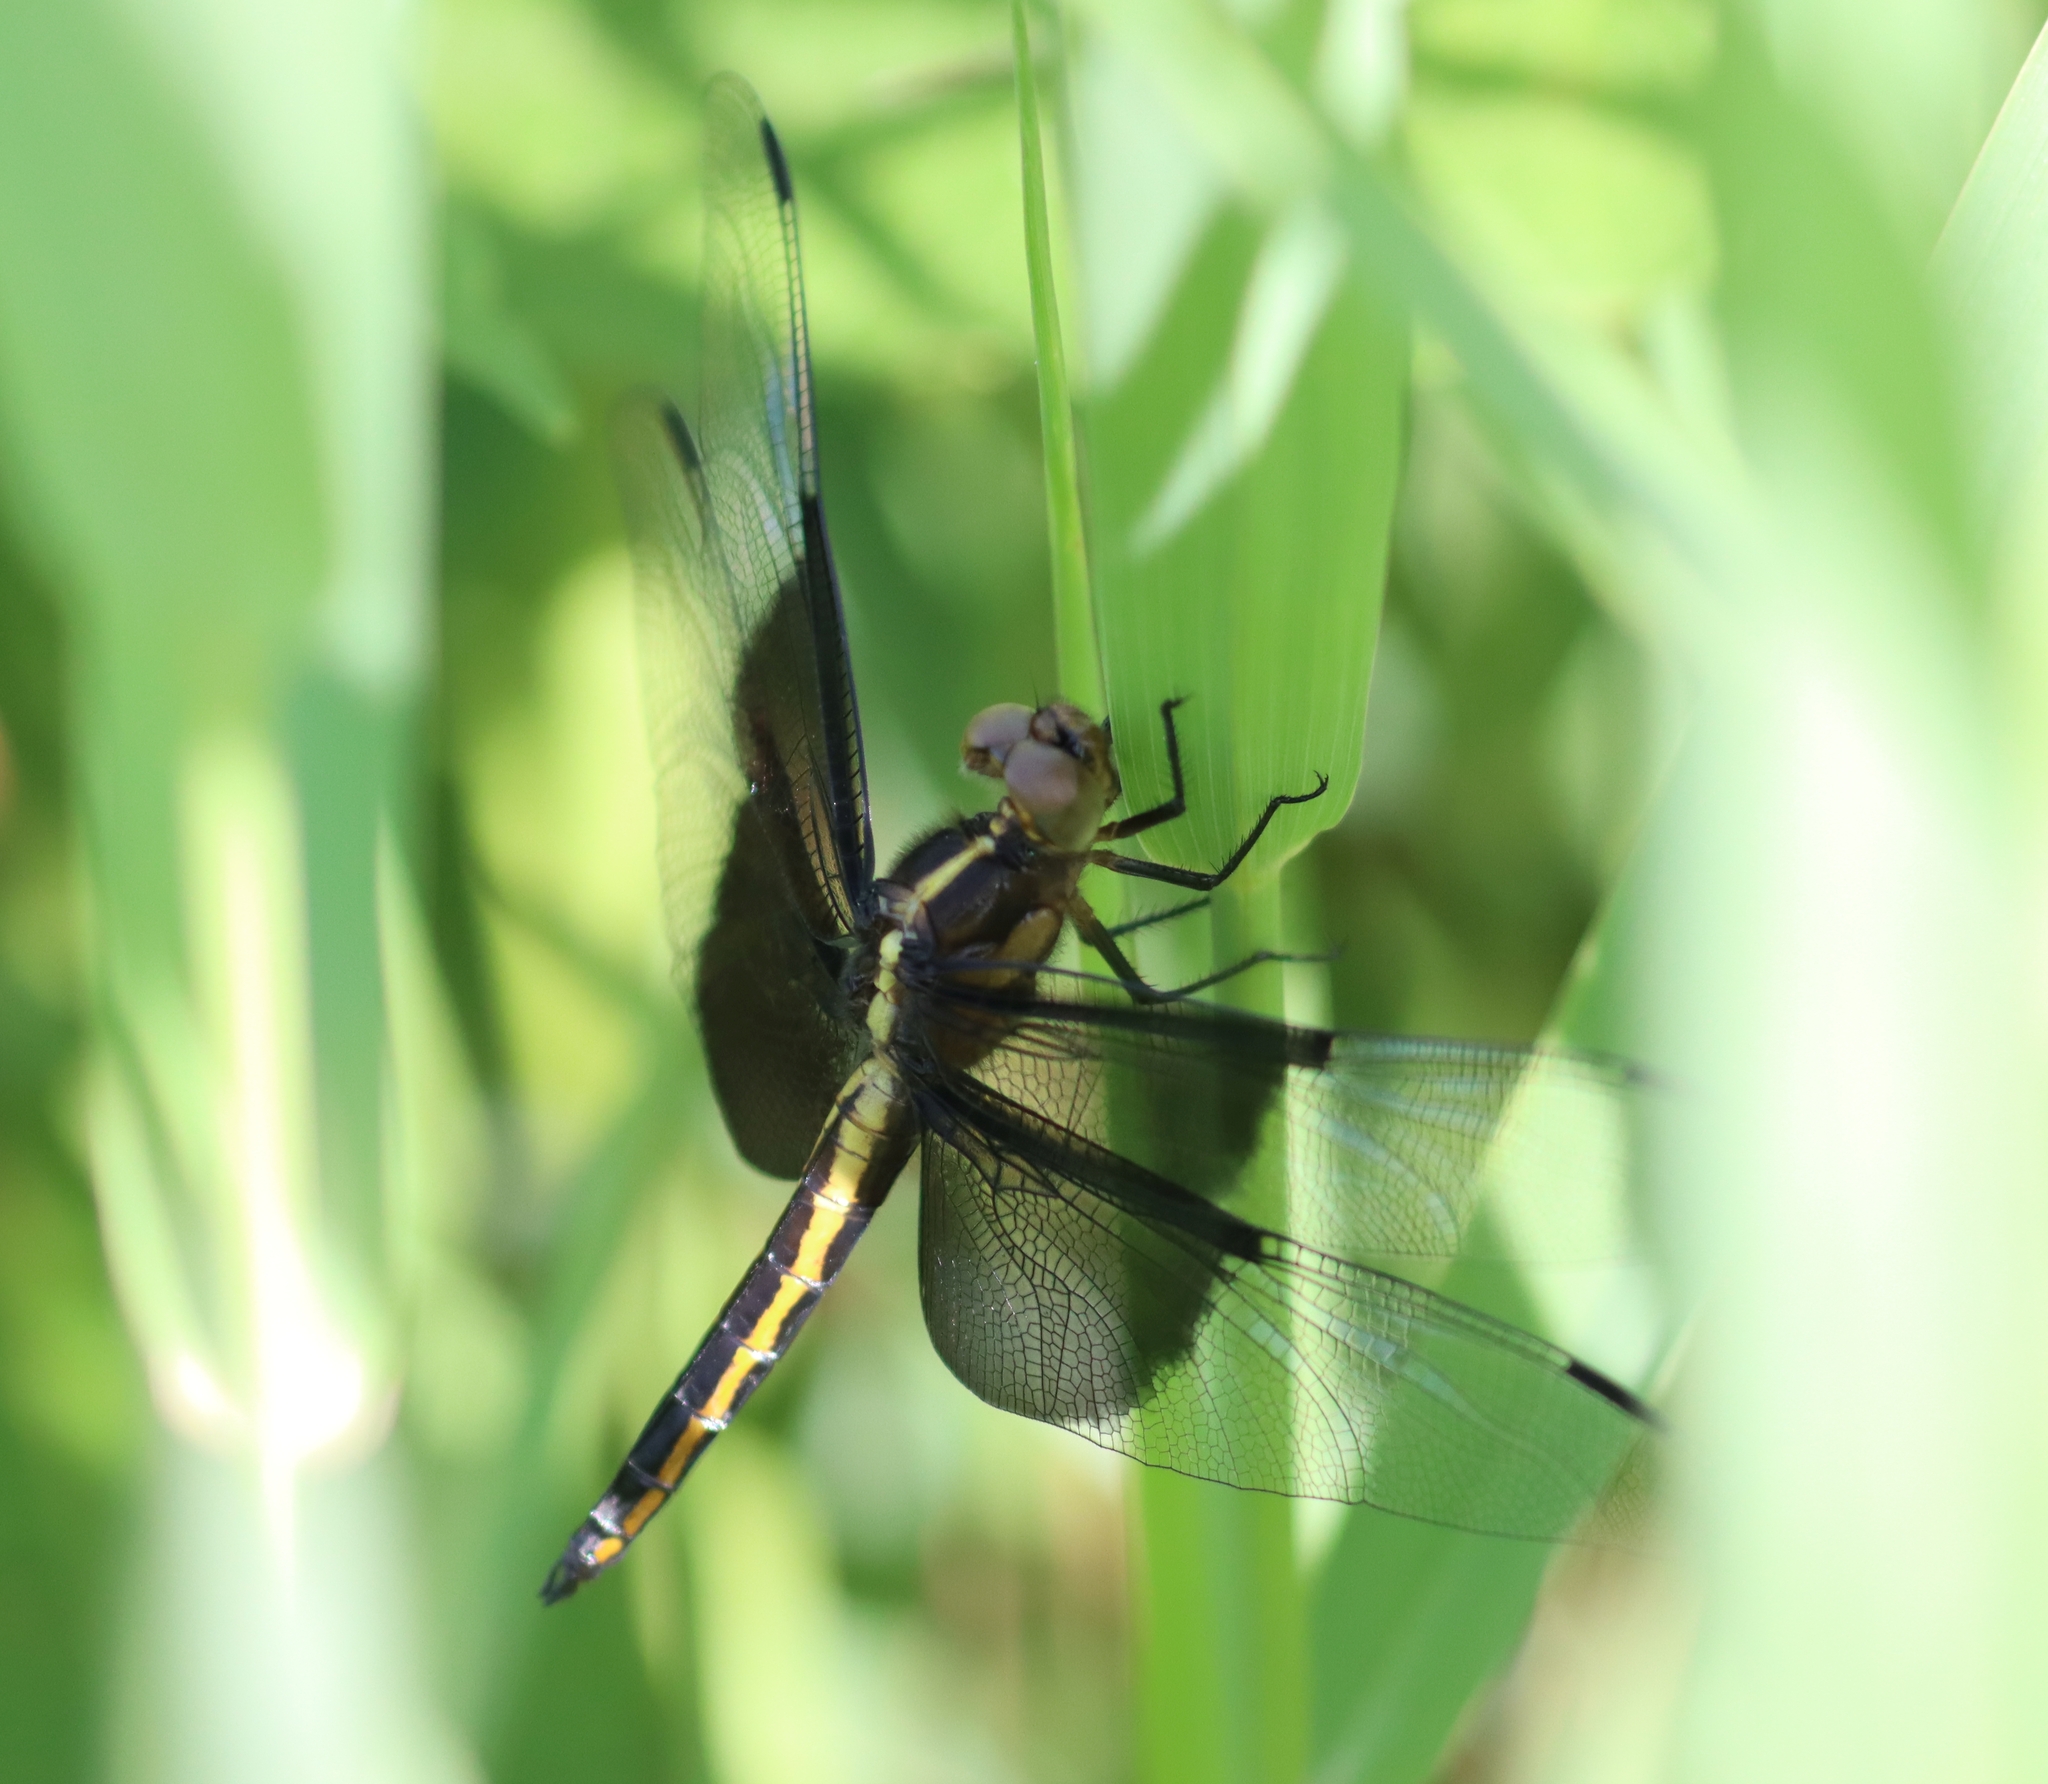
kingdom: Animalia
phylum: Arthropoda
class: Insecta
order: Odonata
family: Libellulidae
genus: Libellula
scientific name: Libellula luctuosa
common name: Widow skimmer
